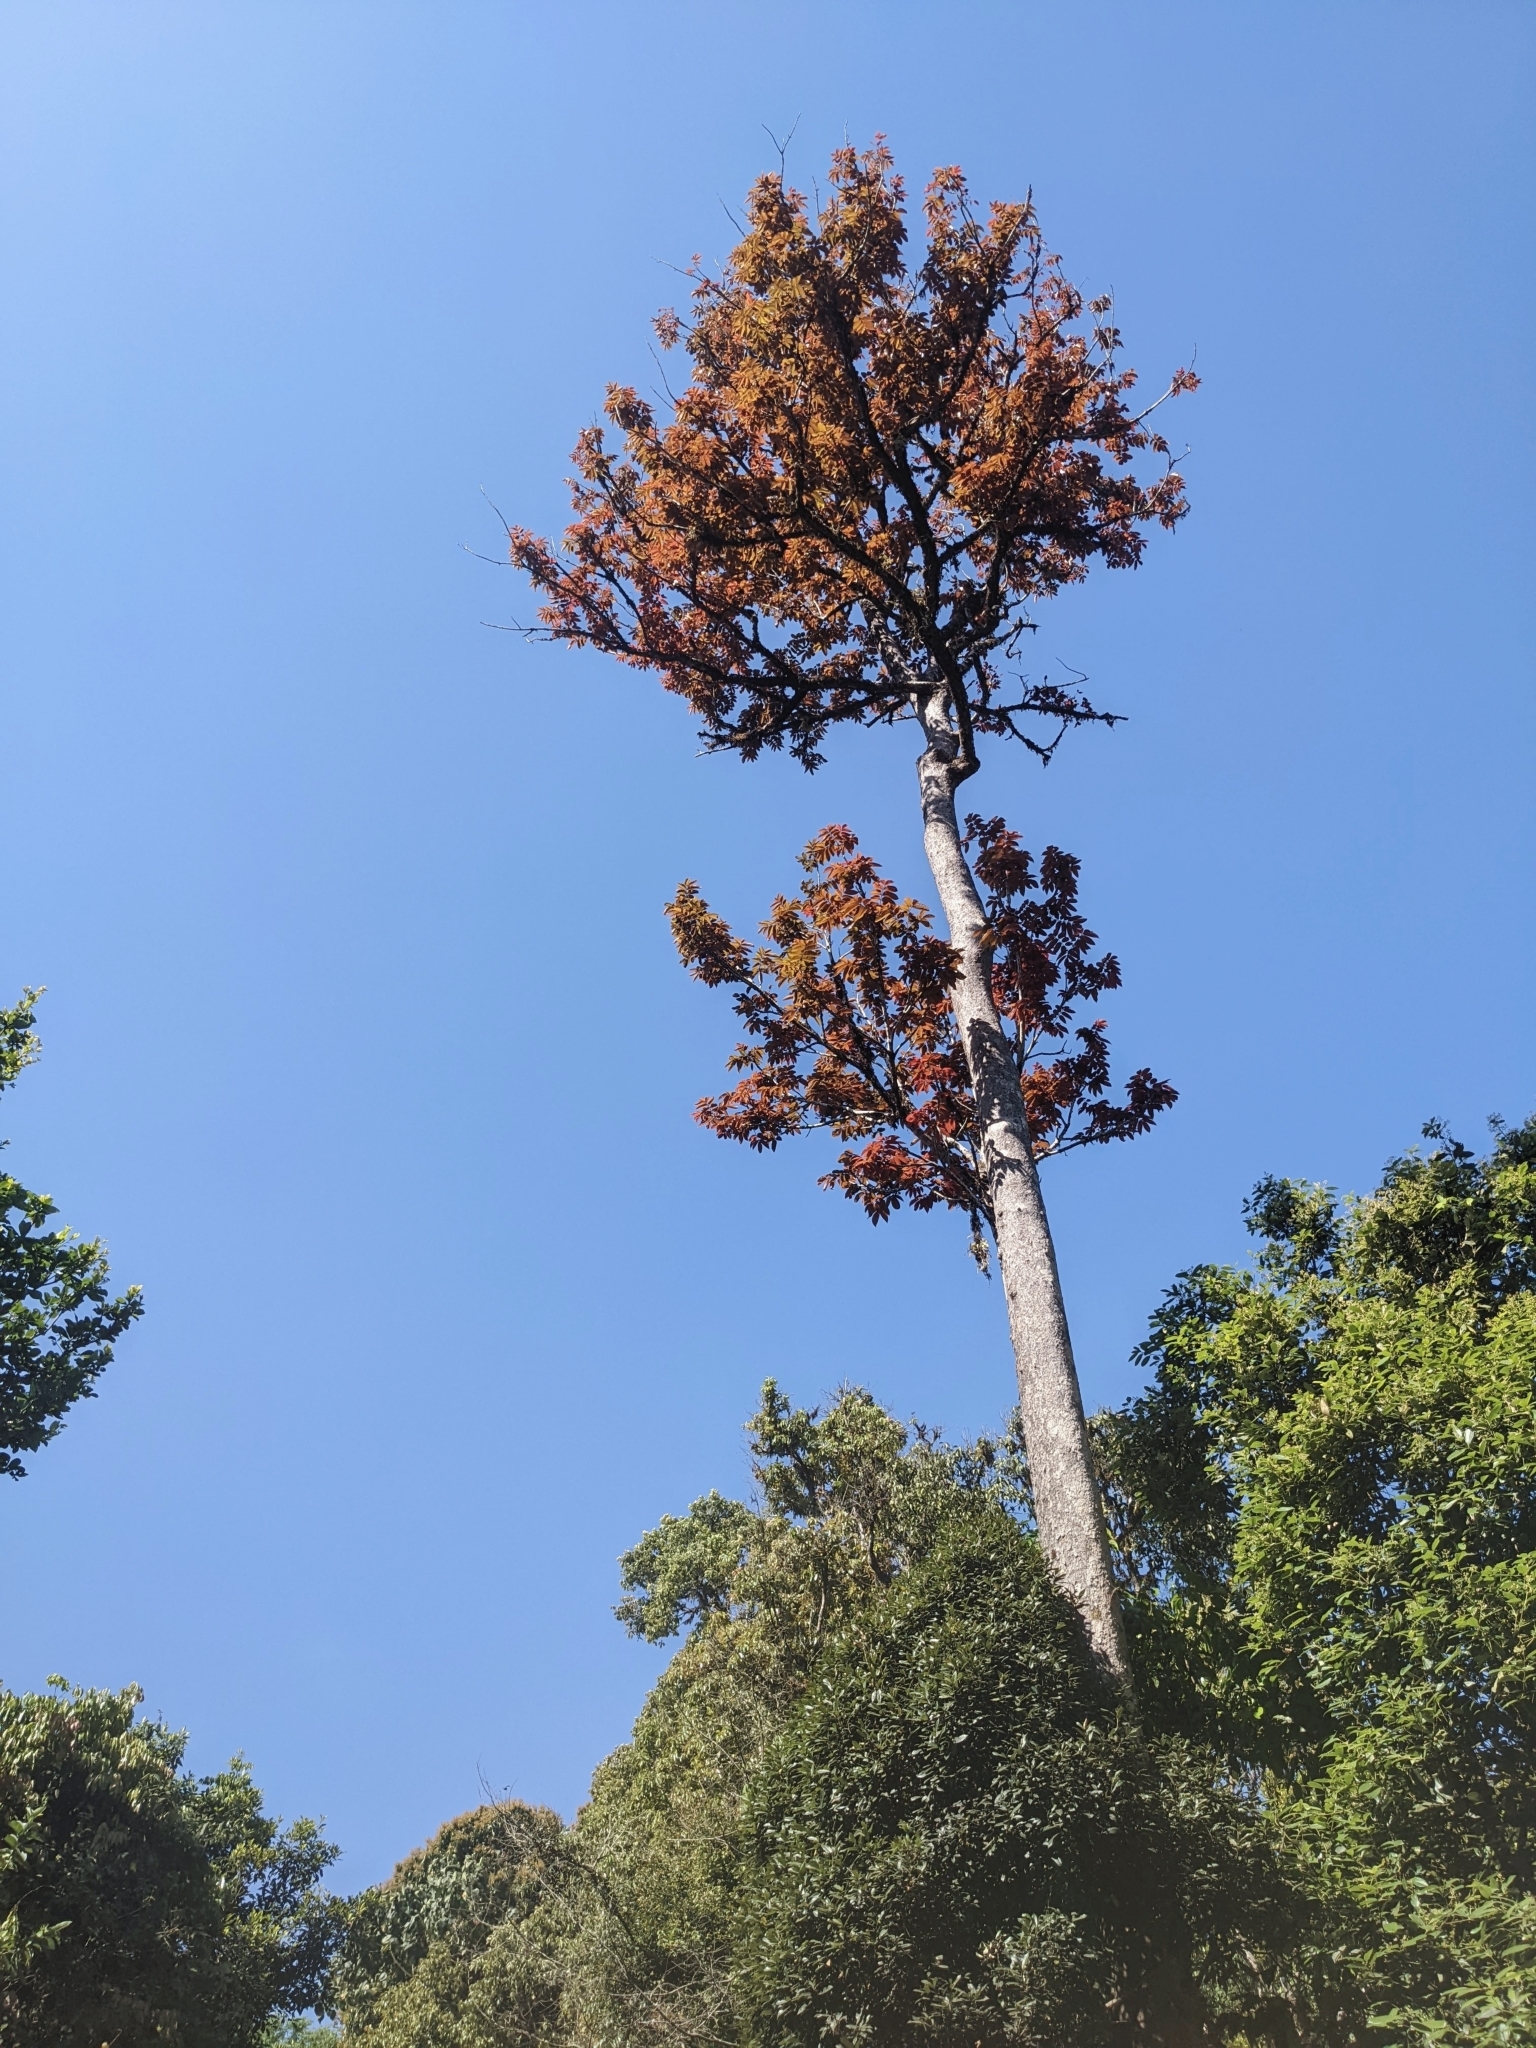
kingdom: Plantae
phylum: Tracheophyta
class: Magnoliopsida
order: Sapindales
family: Burseraceae
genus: Canarium
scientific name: Canarium strictum
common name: Indian white-mahogany
